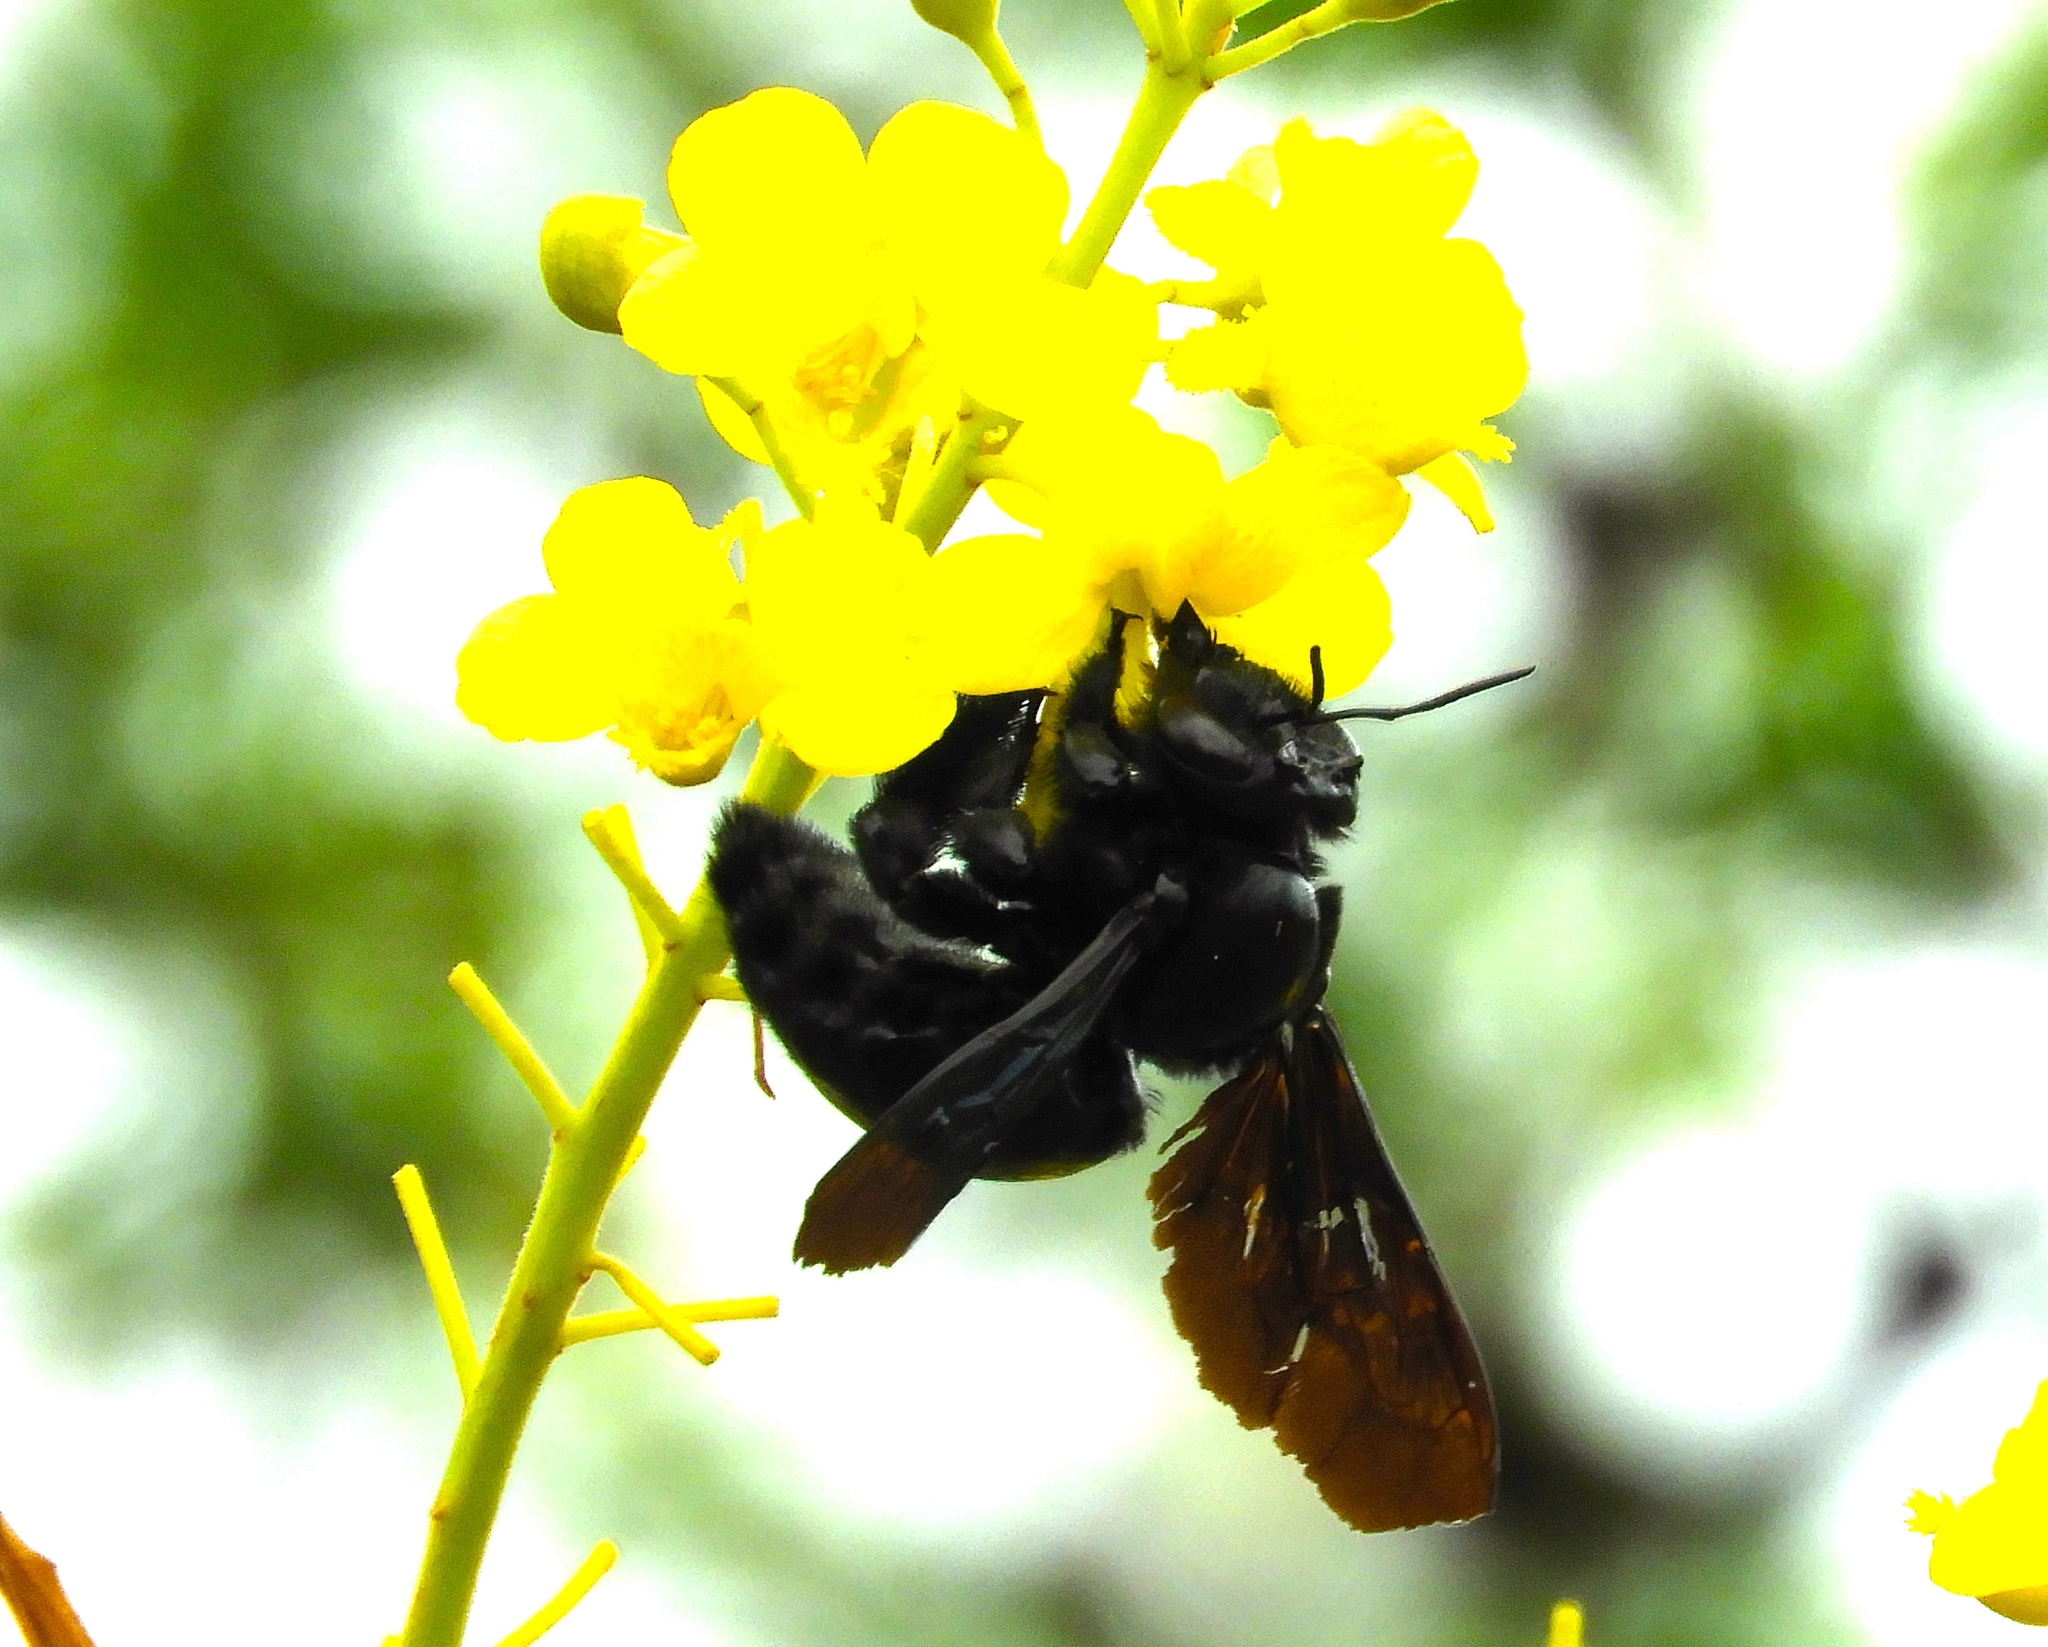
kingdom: Animalia
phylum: Arthropoda
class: Insecta
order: Hymenoptera
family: Apidae
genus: Xylocopa
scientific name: Xylocopa fimbriata
